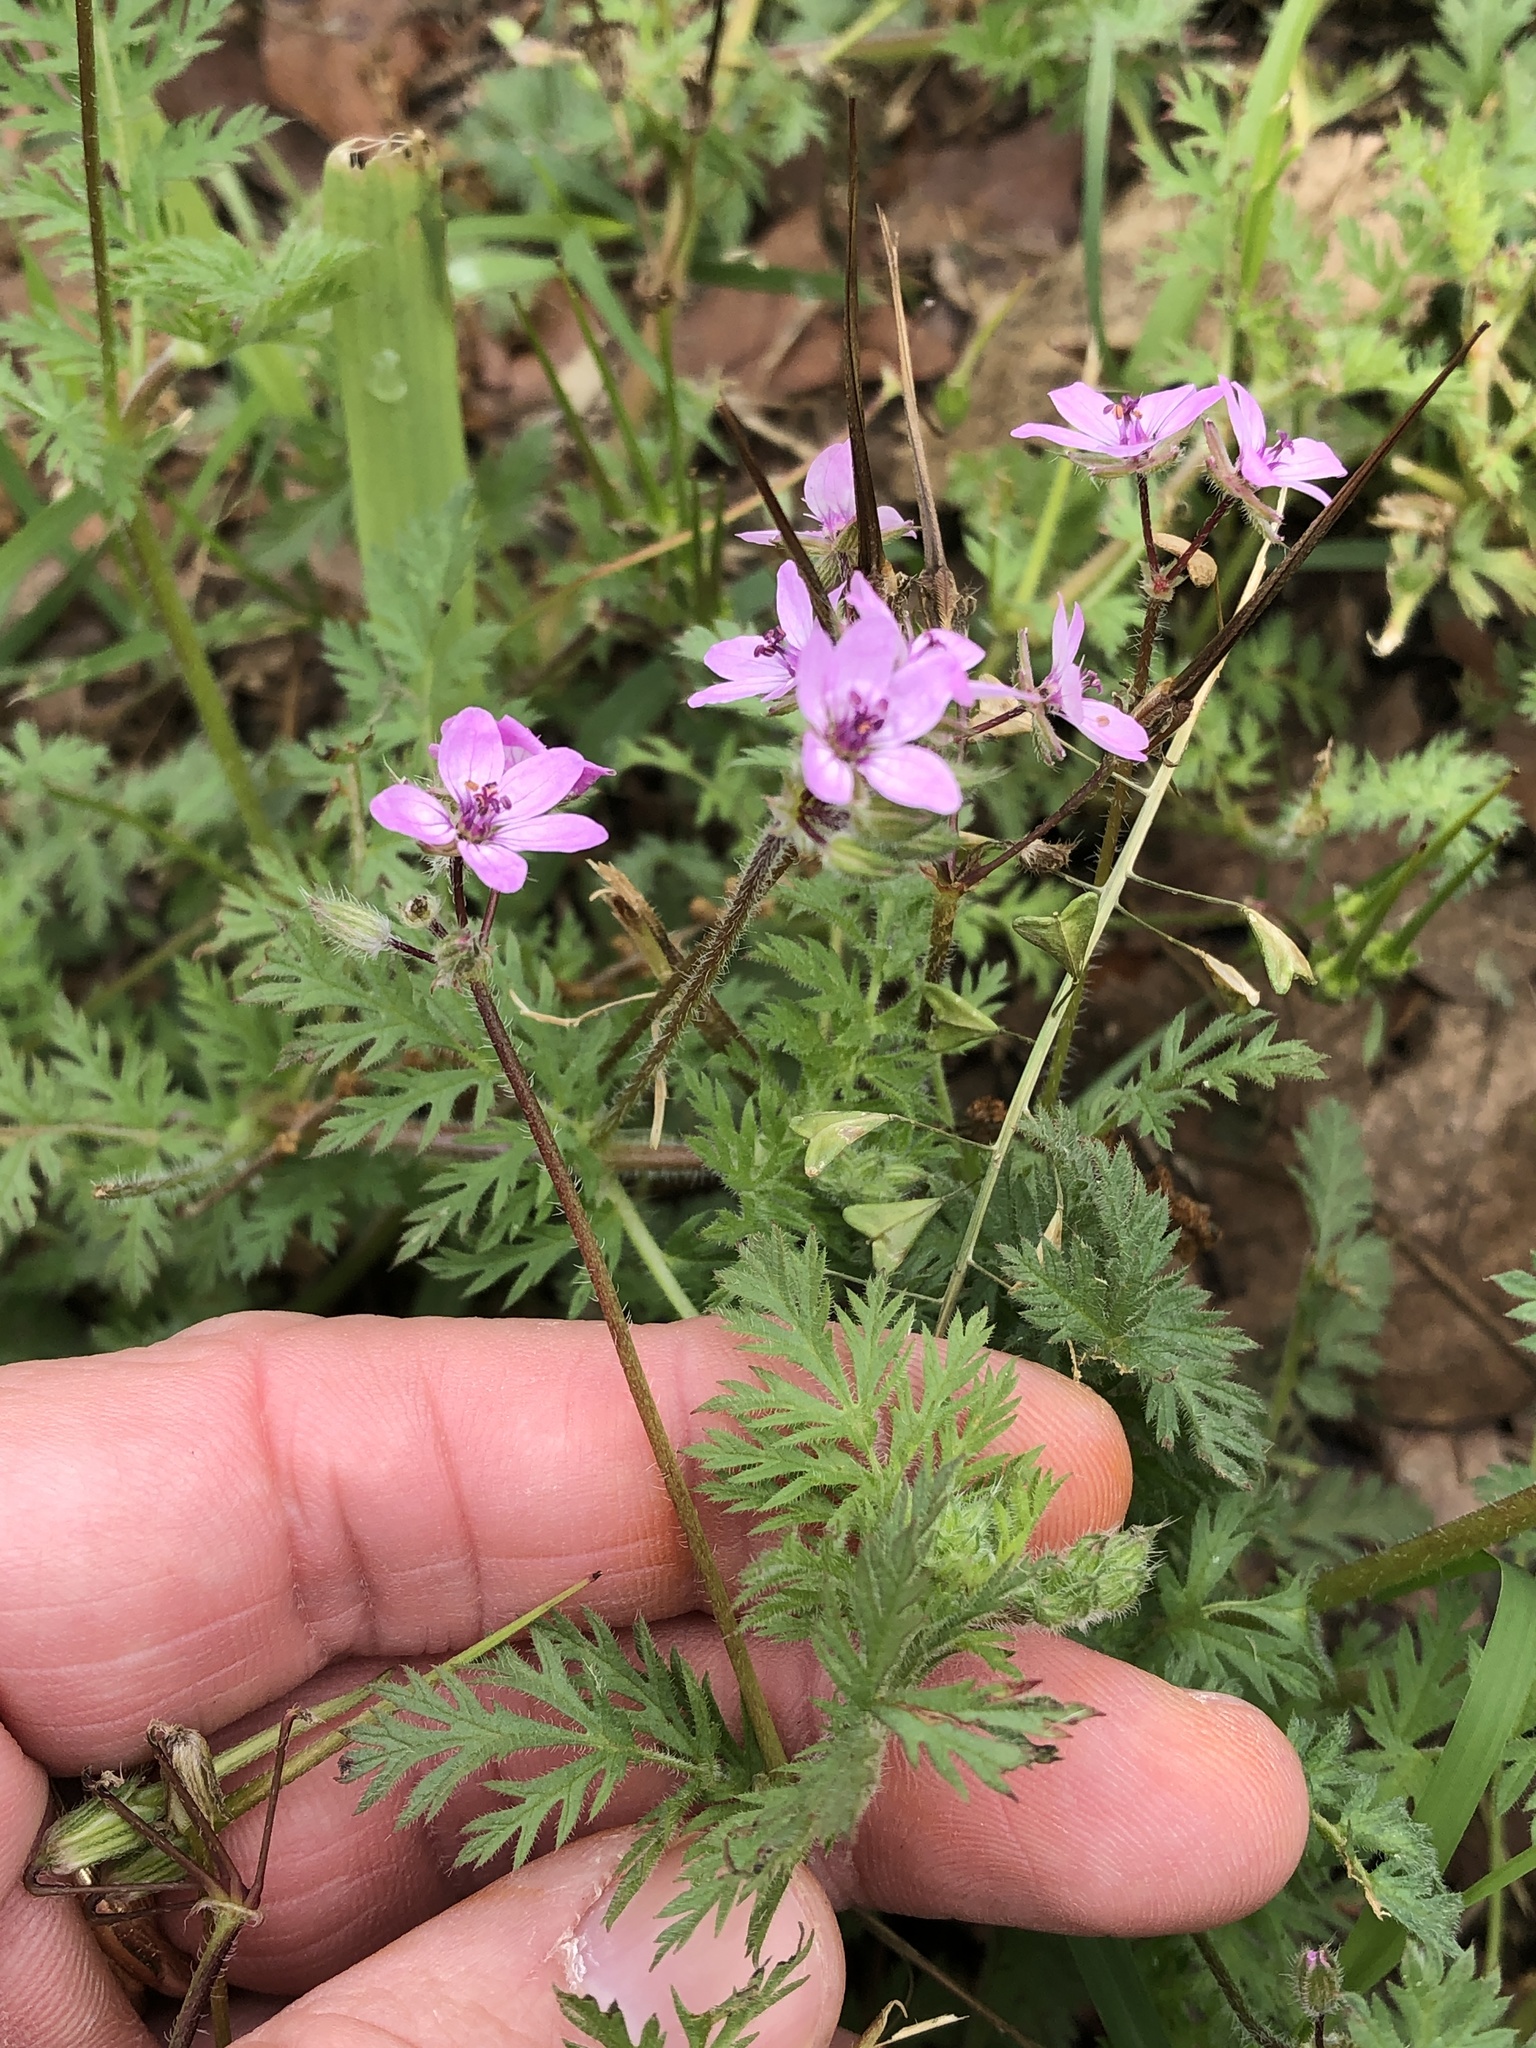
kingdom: Plantae
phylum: Tracheophyta
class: Magnoliopsida
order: Geraniales
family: Geraniaceae
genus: Erodium
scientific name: Erodium cicutarium
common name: Common stork's-bill
